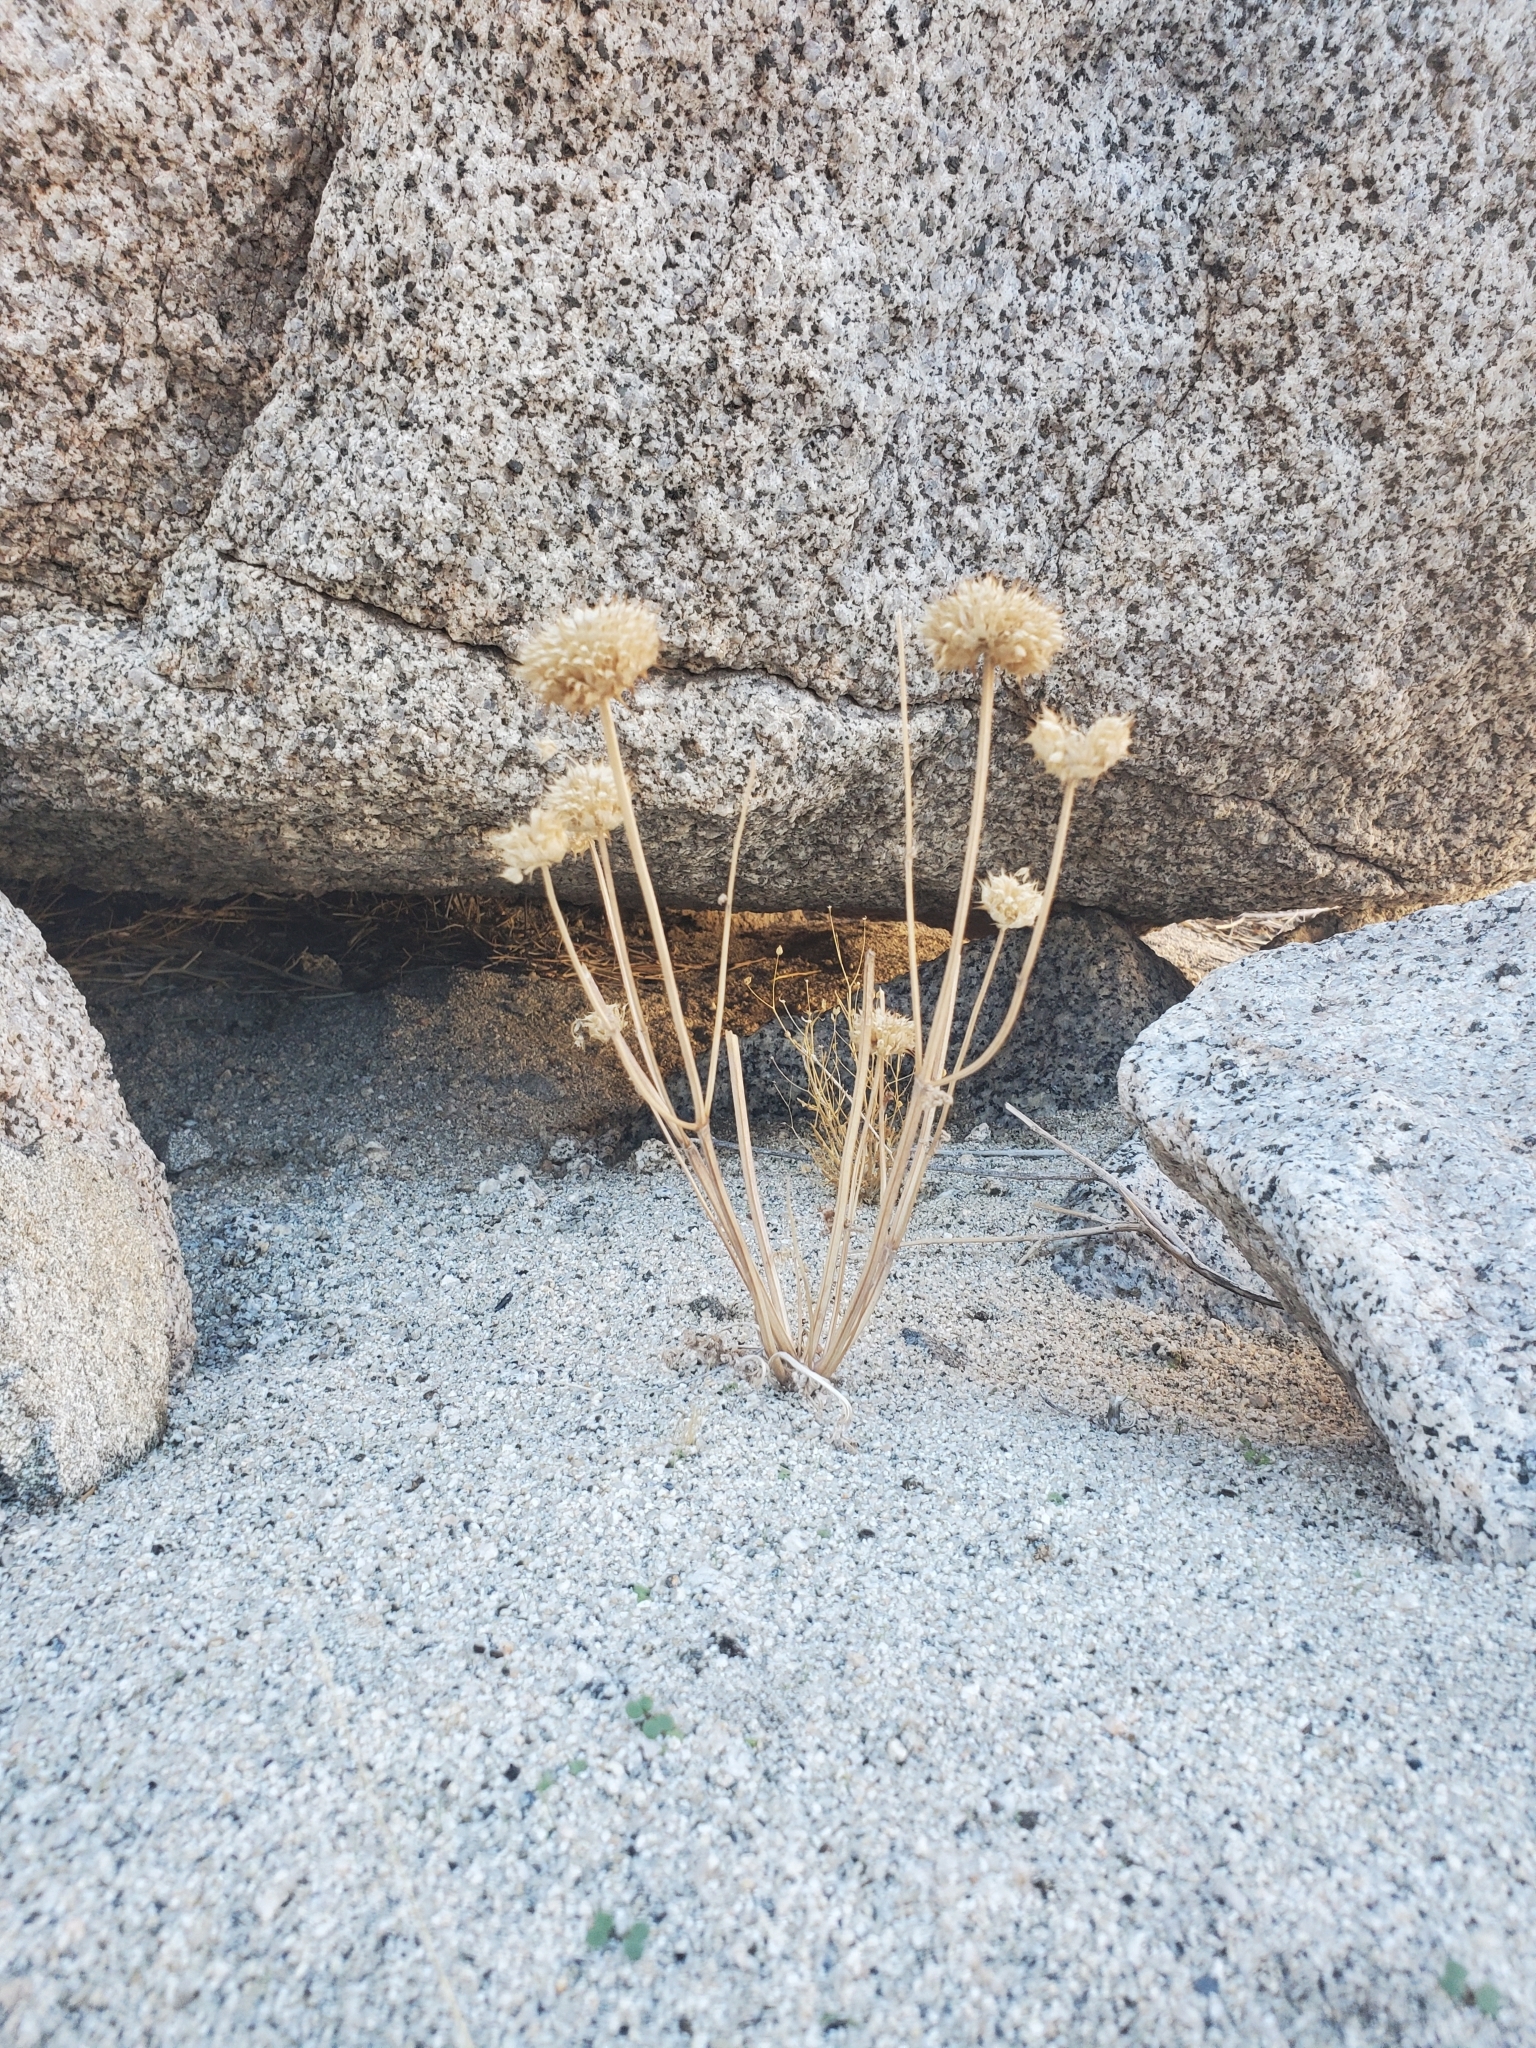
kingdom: Plantae
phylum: Tracheophyta
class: Magnoliopsida
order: Lamiales
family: Lamiaceae
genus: Salvia
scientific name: Salvia columbariae
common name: Chia
